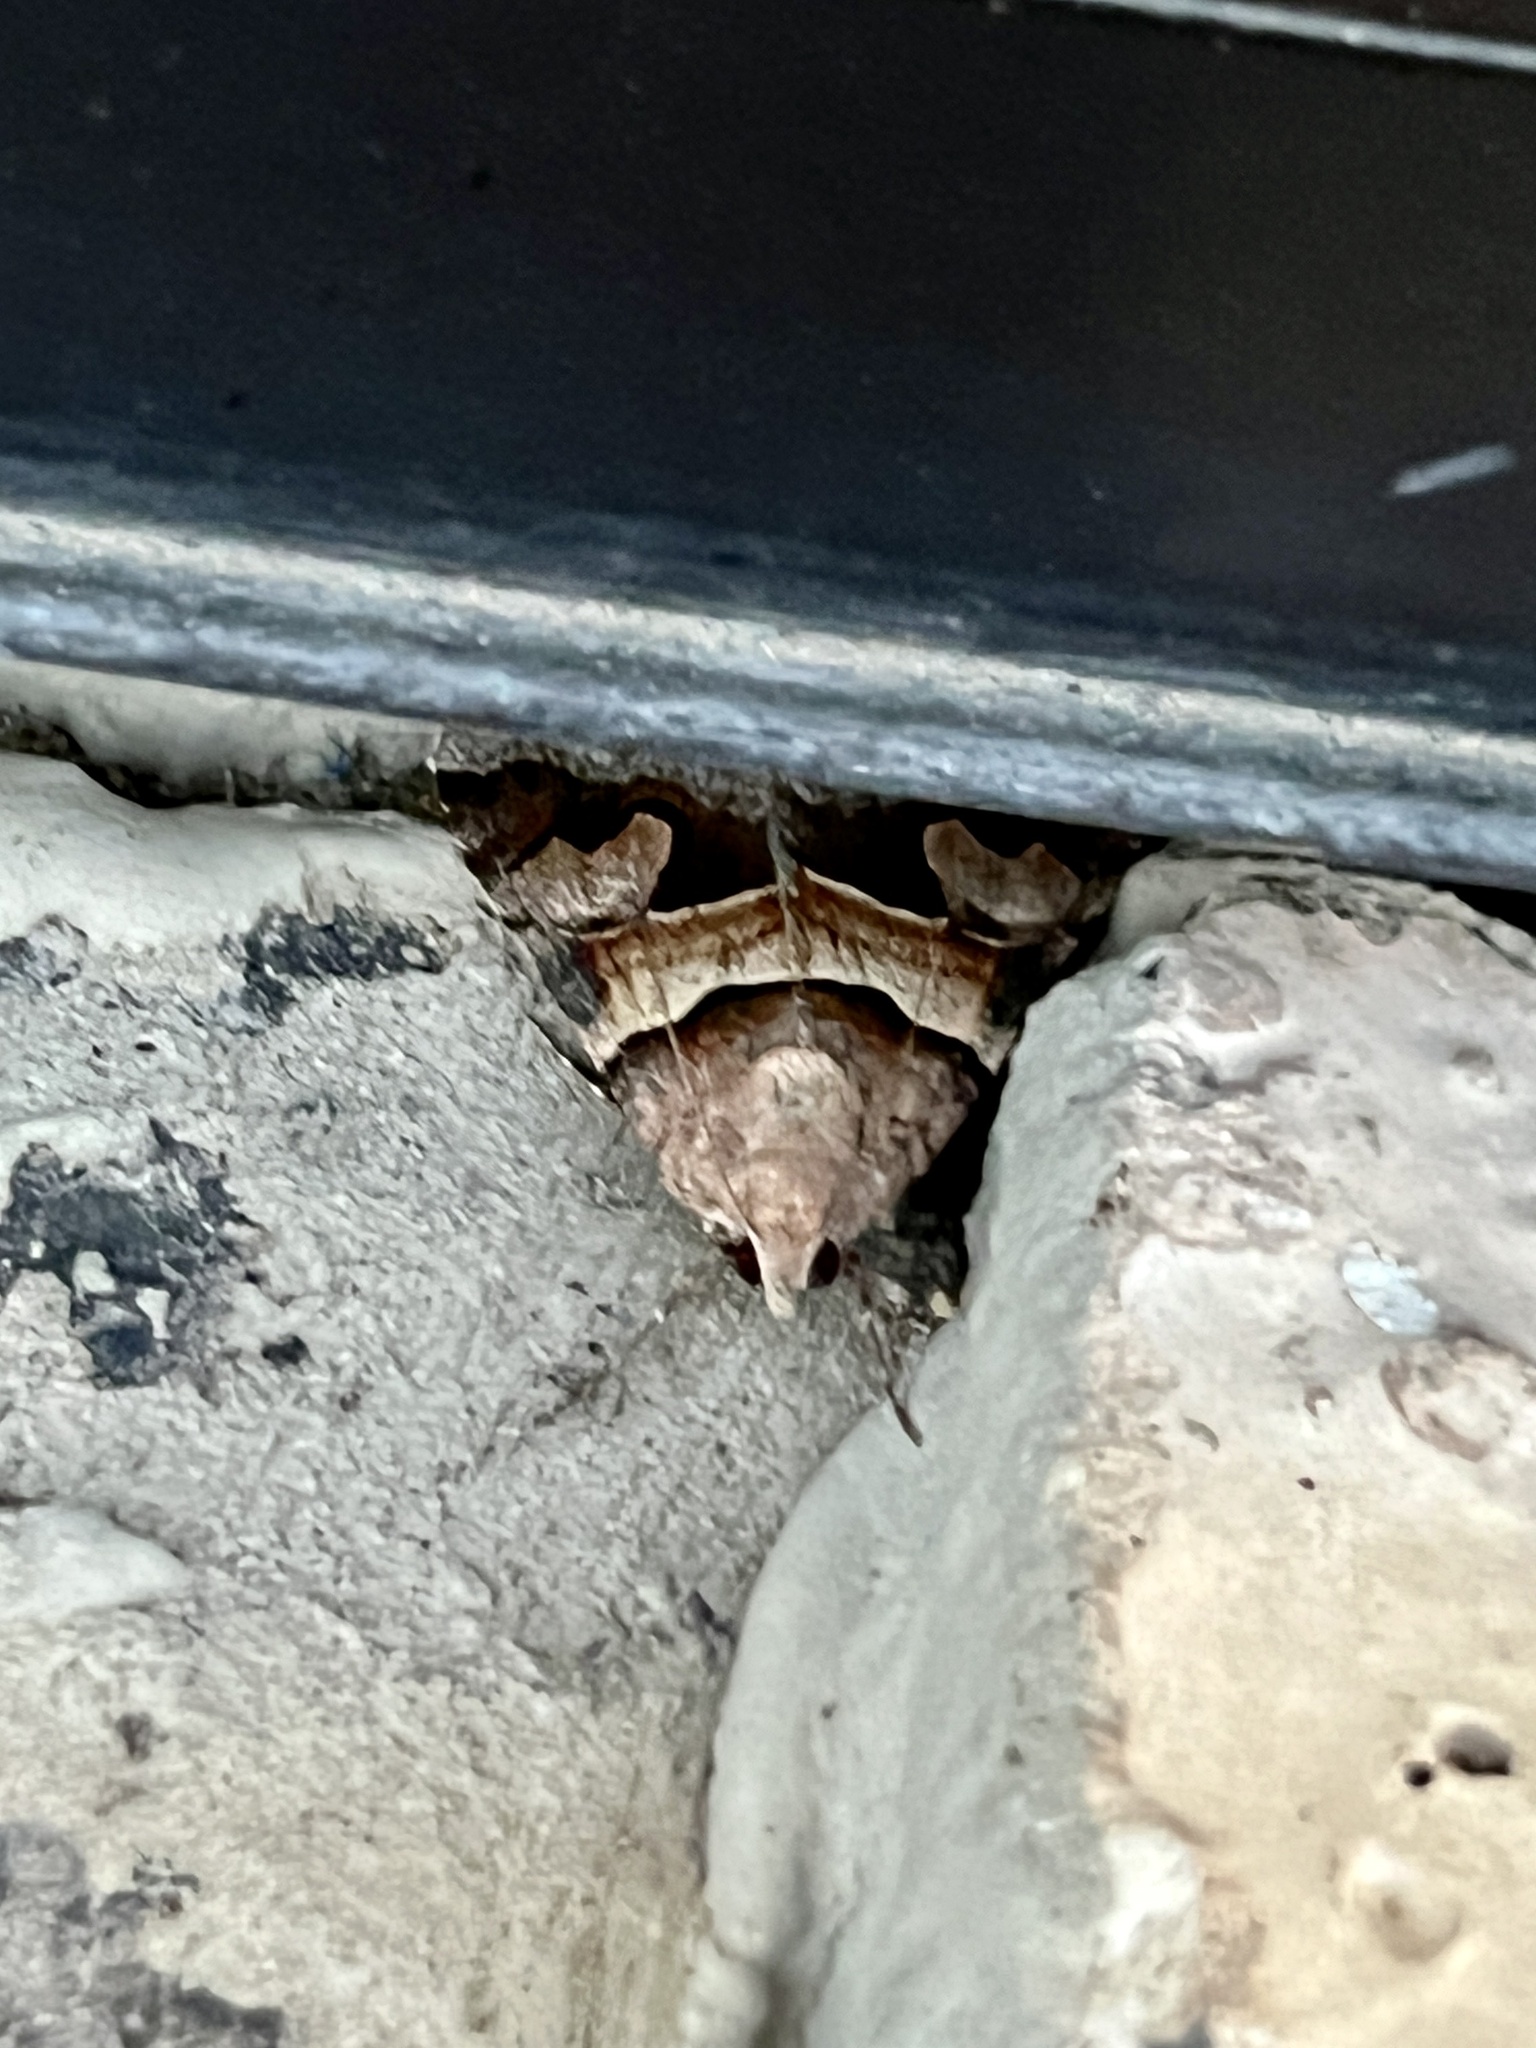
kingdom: Animalia
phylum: Arthropoda
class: Insecta
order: Lepidoptera
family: Erebidae
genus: Drasteria
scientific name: Drasteria pallescens
